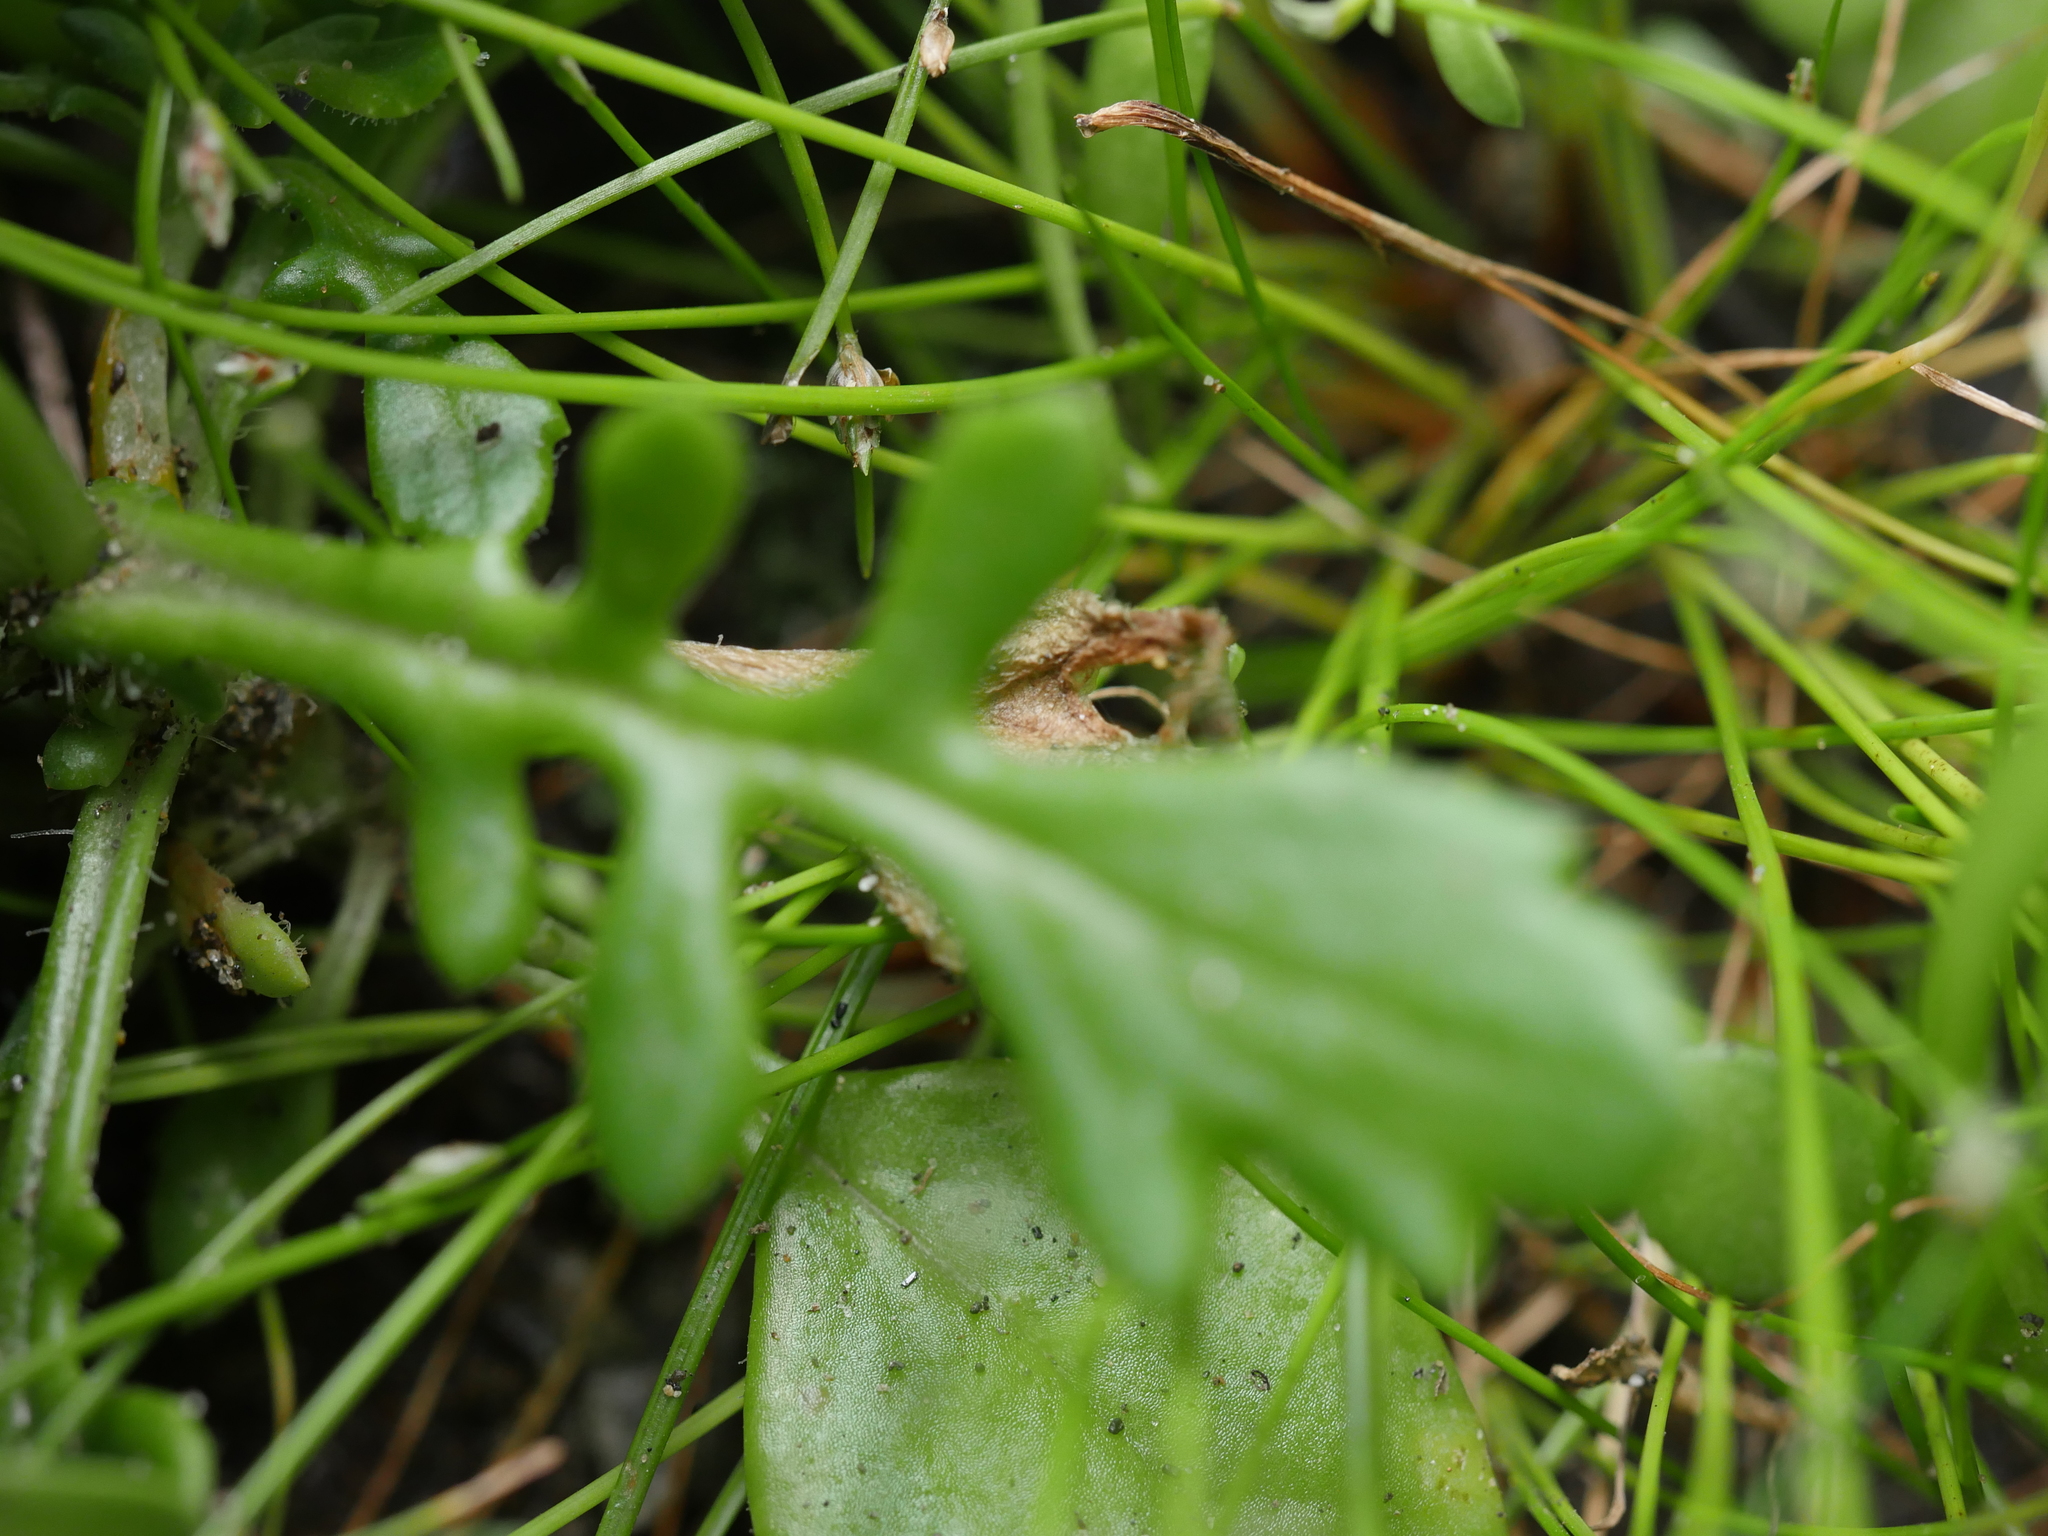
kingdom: Plantae
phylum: Tracheophyta
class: Magnoliopsida
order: Asterales
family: Asteraceae
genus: Senecio
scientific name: Senecio lautus
